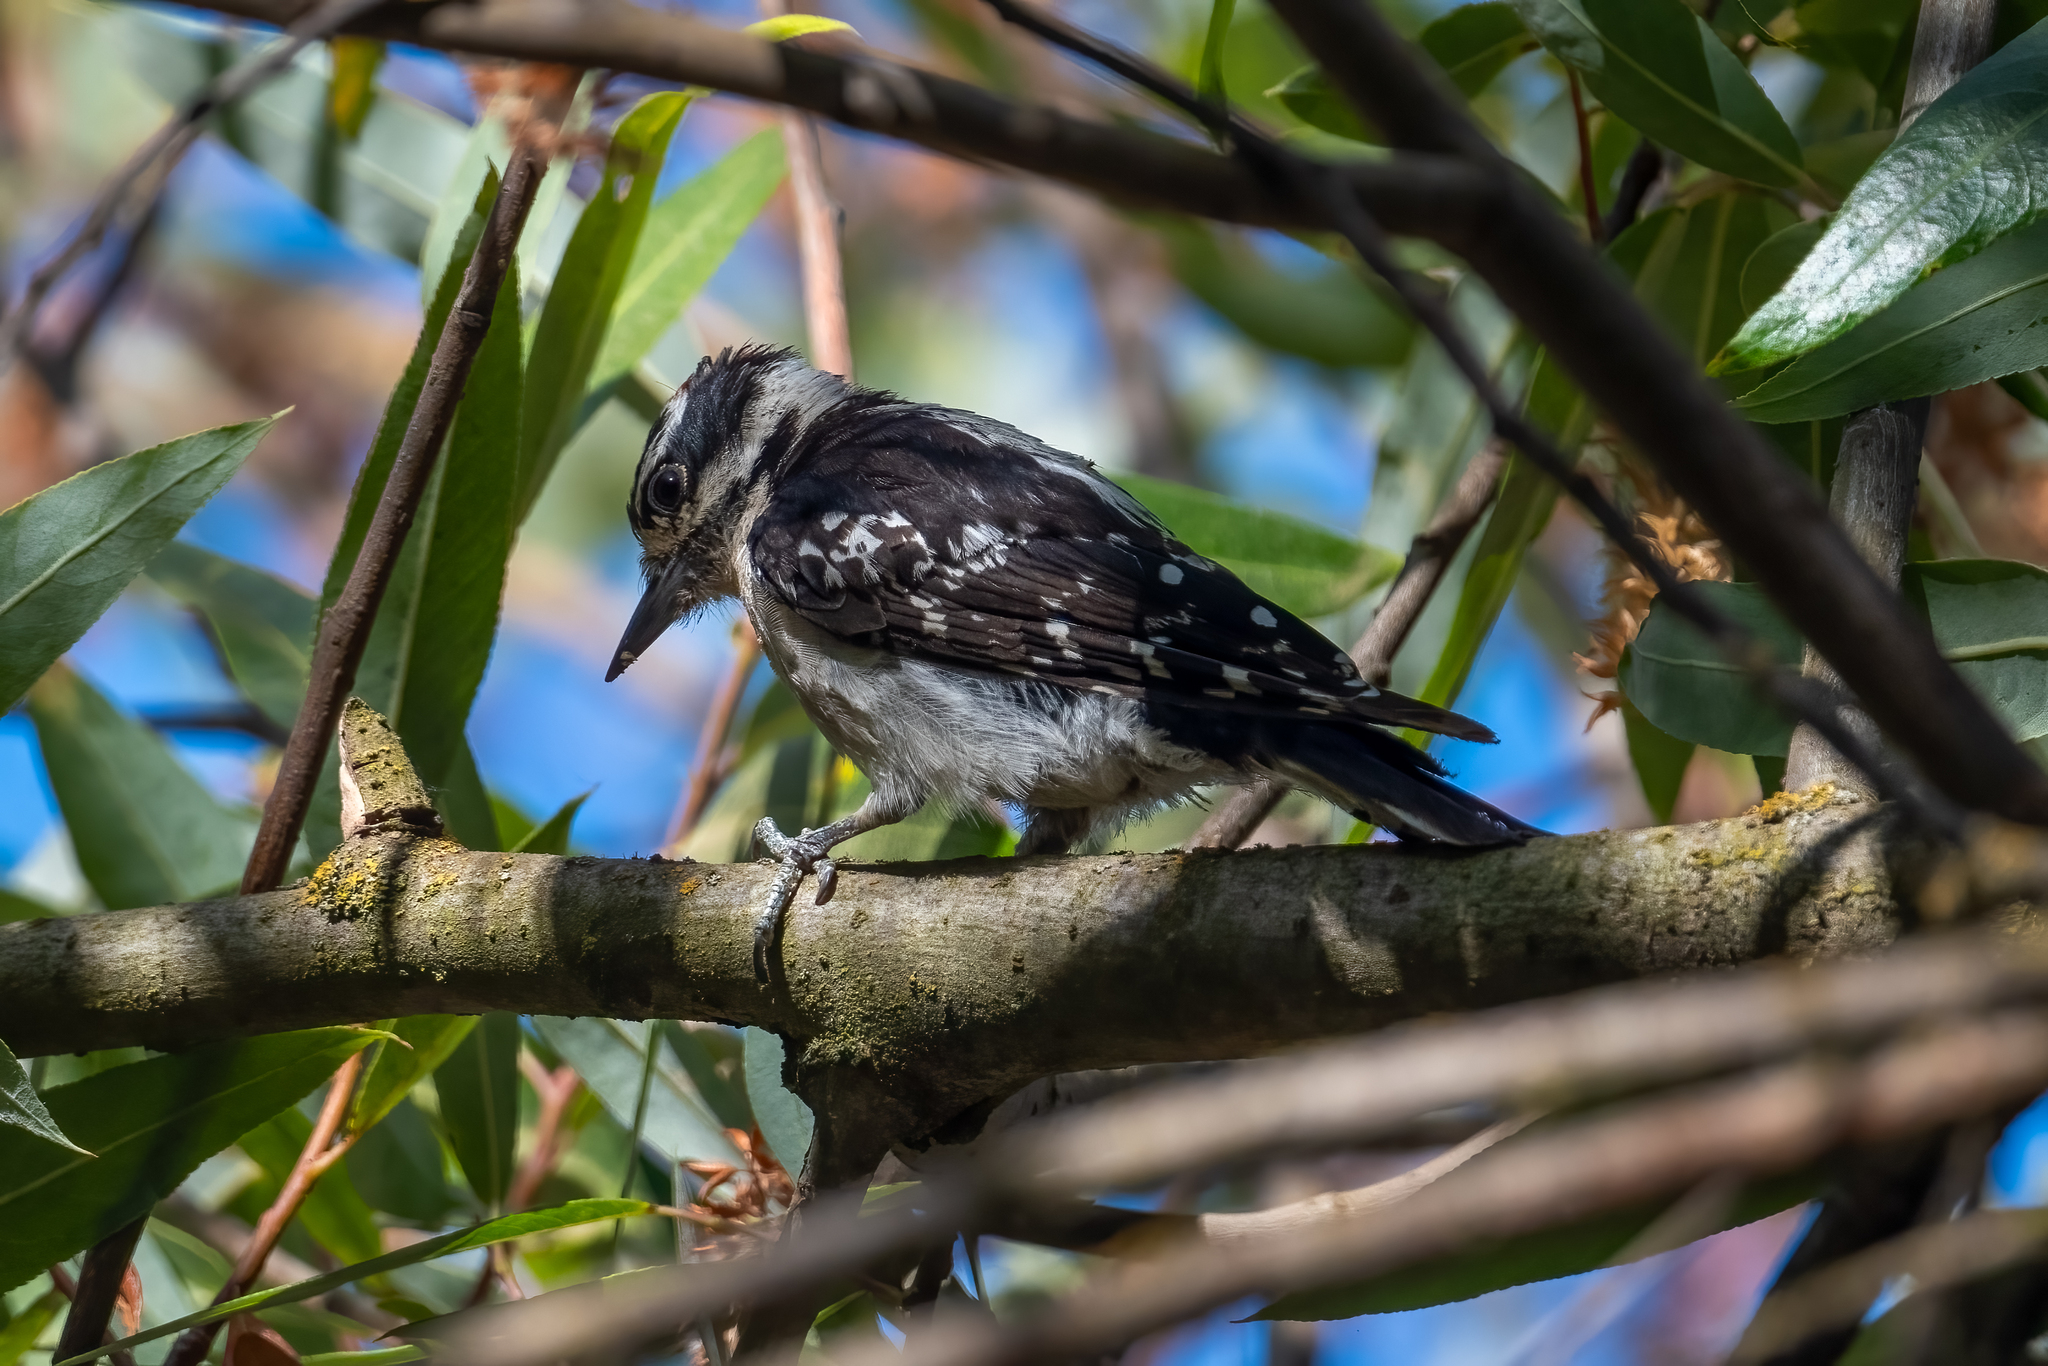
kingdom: Animalia
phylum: Chordata
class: Aves
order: Piciformes
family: Picidae
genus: Dryobates
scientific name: Dryobates pubescens
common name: Downy woodpecker
